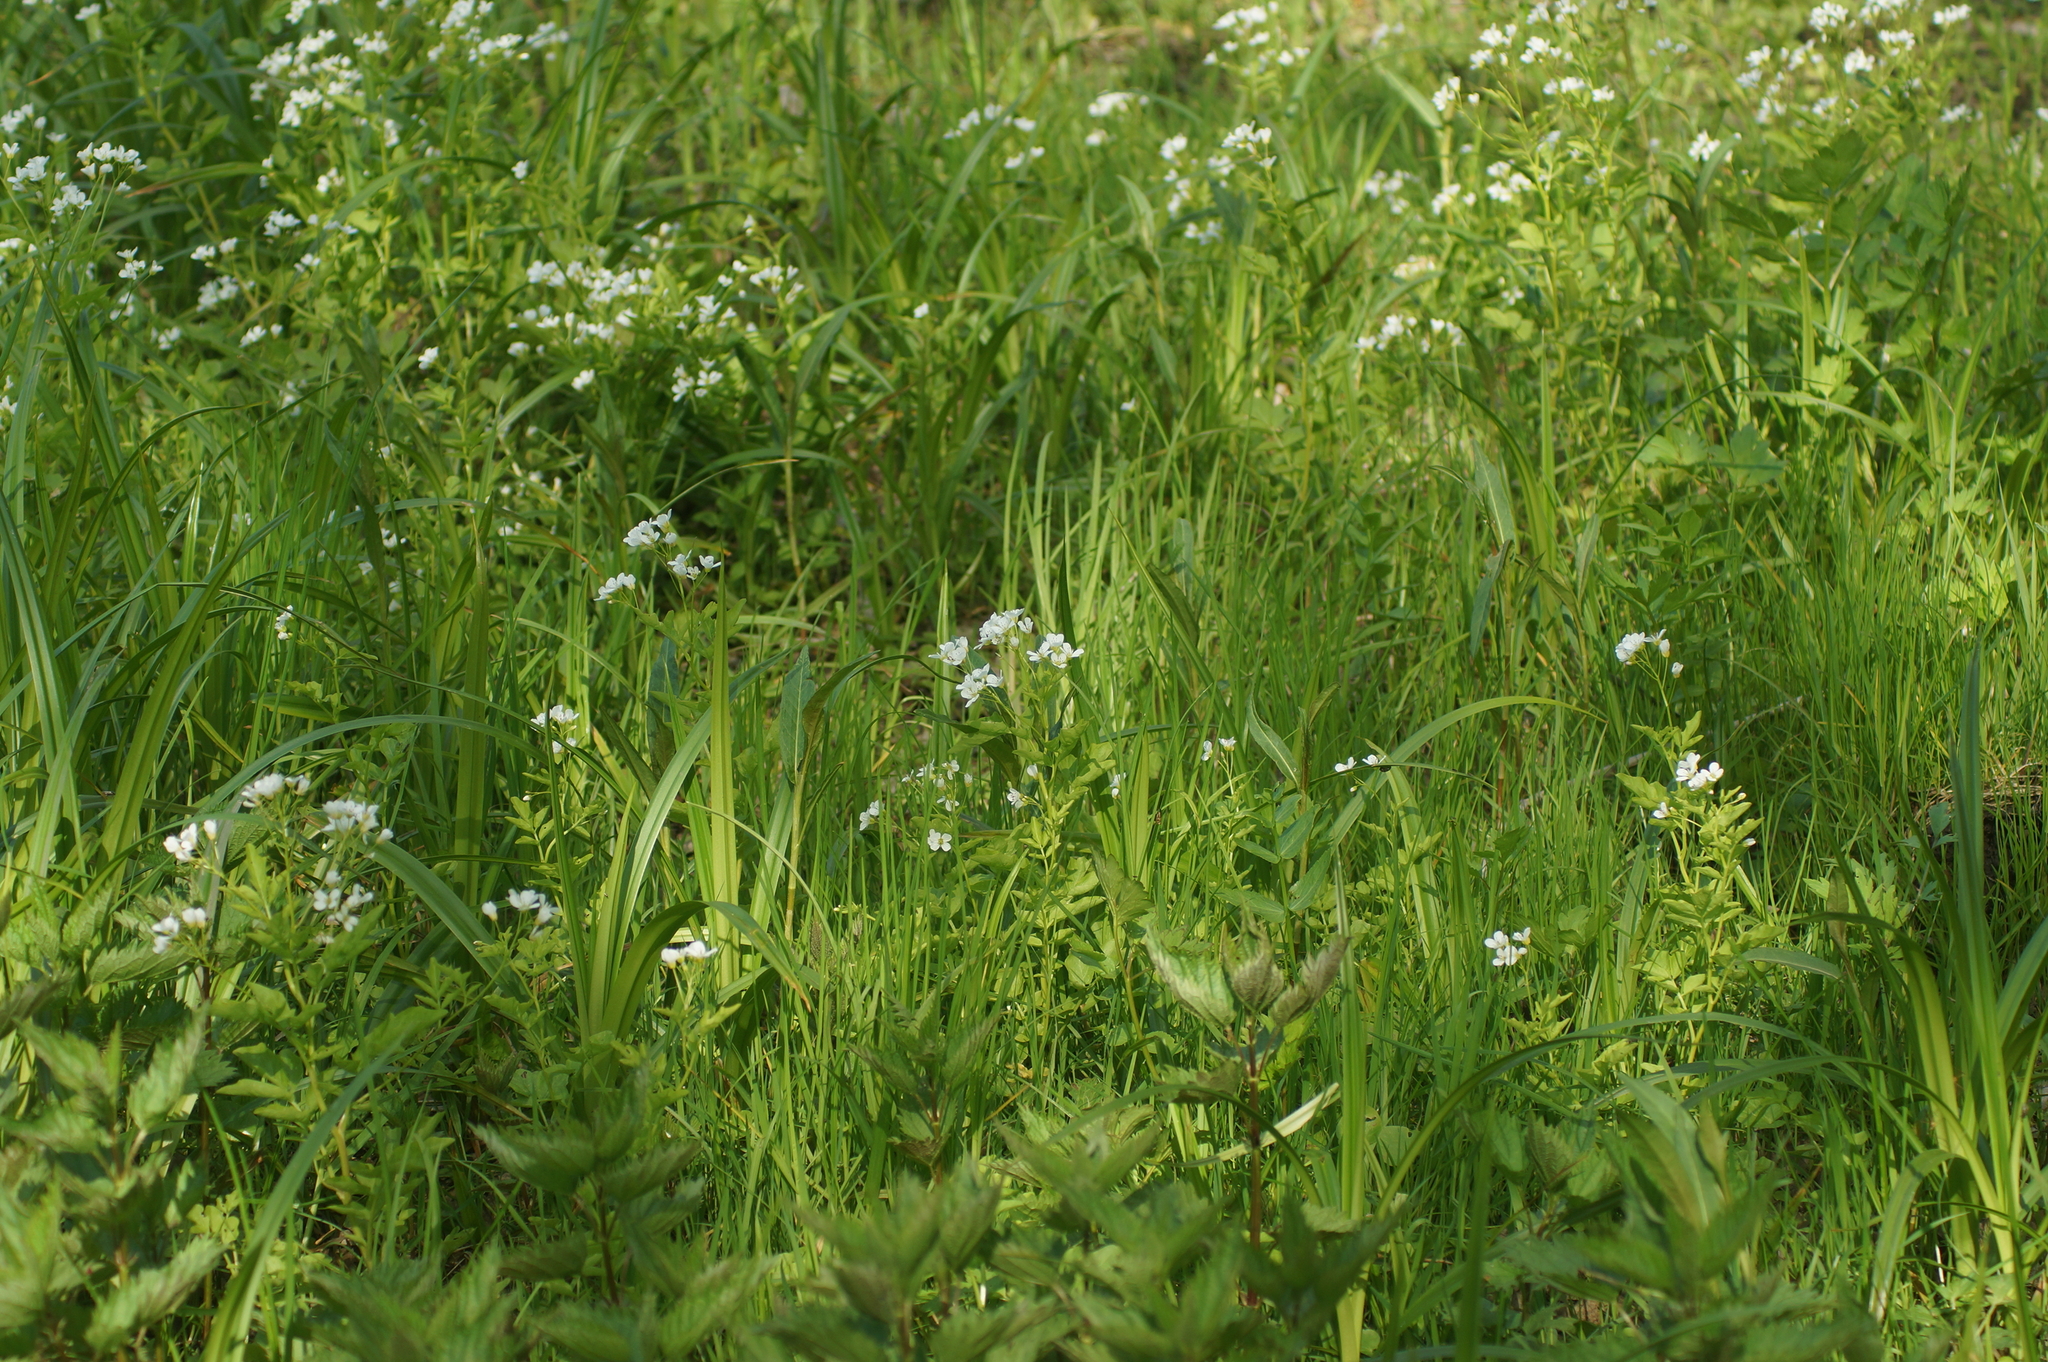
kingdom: Plantae
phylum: Tracheophyta
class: Magnoliopsida
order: Brassicales
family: Brassicaceae
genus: Cardamine
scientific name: Cardamine amara
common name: Large bitter-cress
